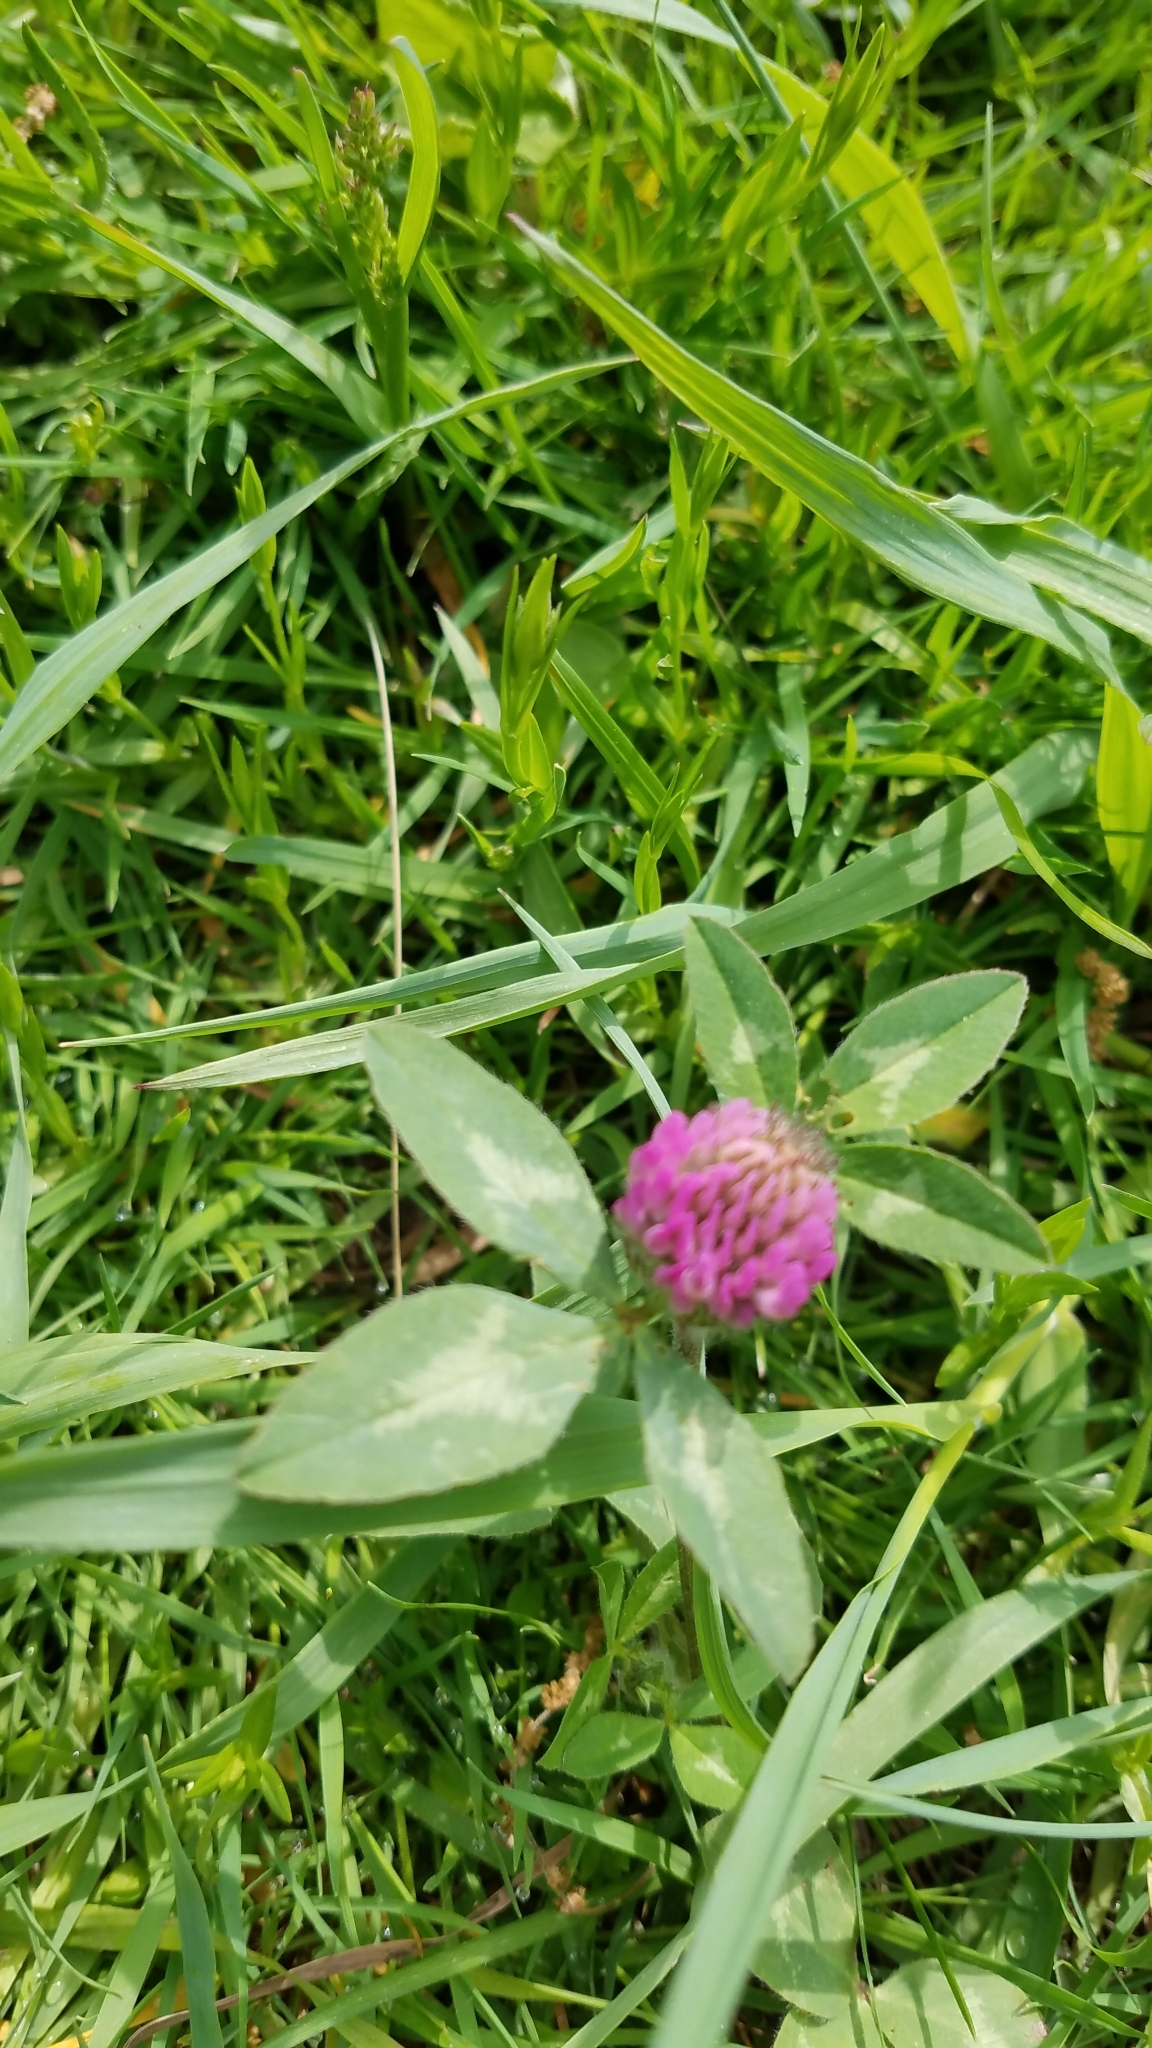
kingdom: Plantae
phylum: Tracheophyta
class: Magnoliopsida
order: Fabales
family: Fabaceae
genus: Trifolium
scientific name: Trifolium pratense
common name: Red clover
